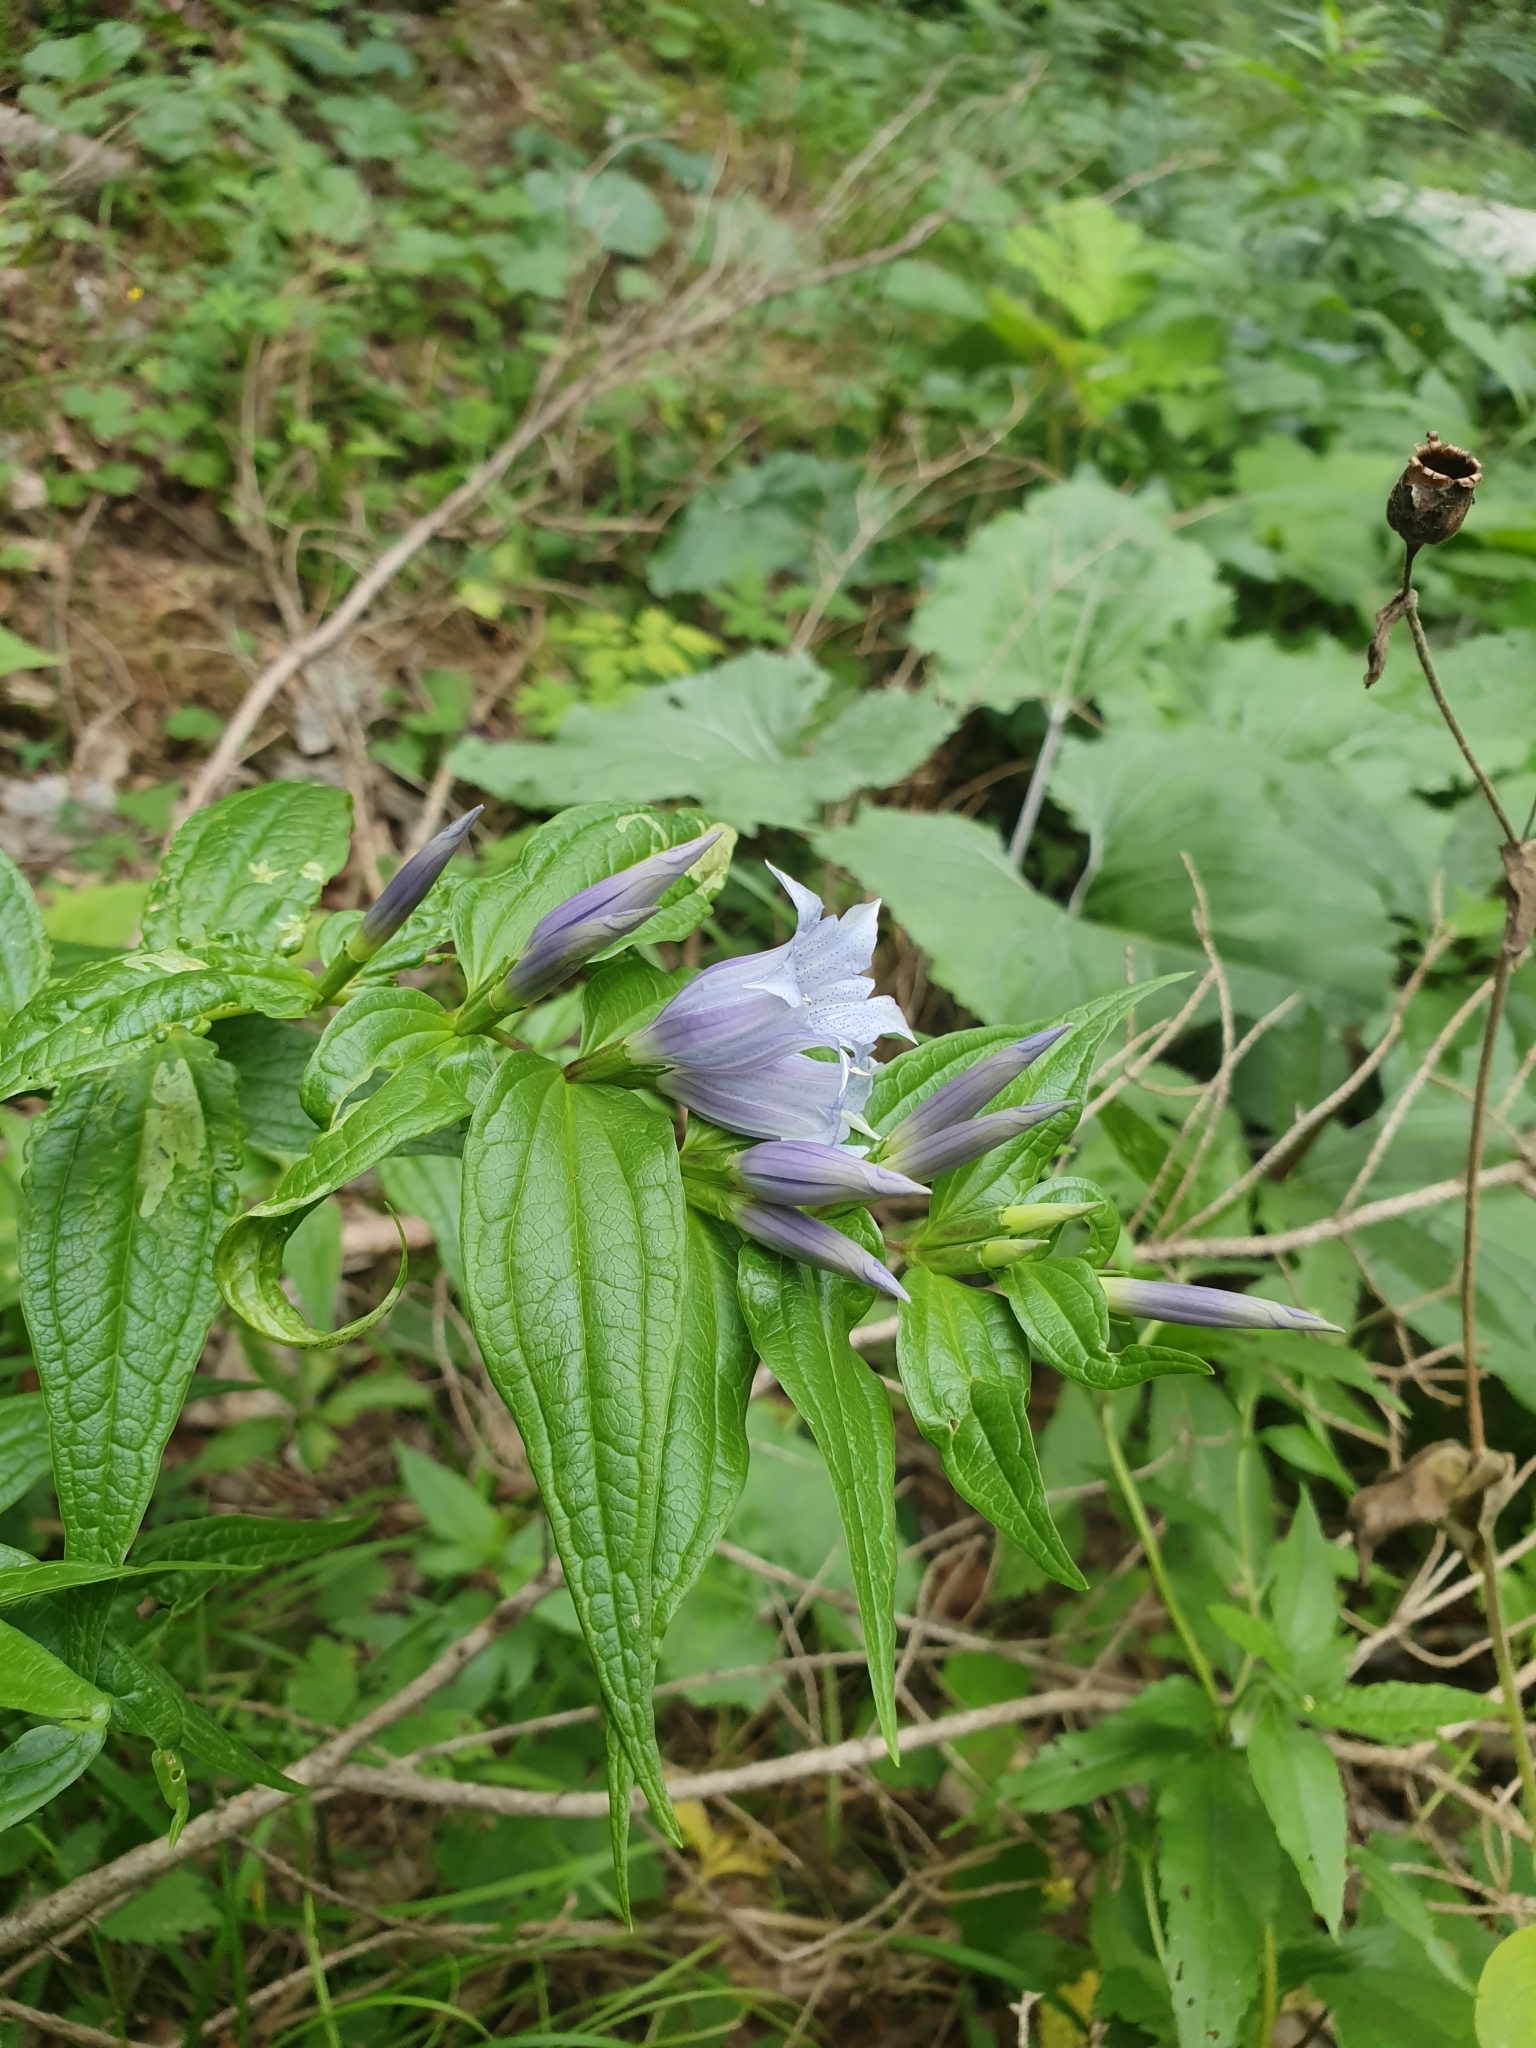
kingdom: Plantae
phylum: Tracheophyta
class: Magnoliopsida
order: Gentianales
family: Gentianaceae
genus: Gentiana
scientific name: Gentiana asclepiadea
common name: Willow gentian
